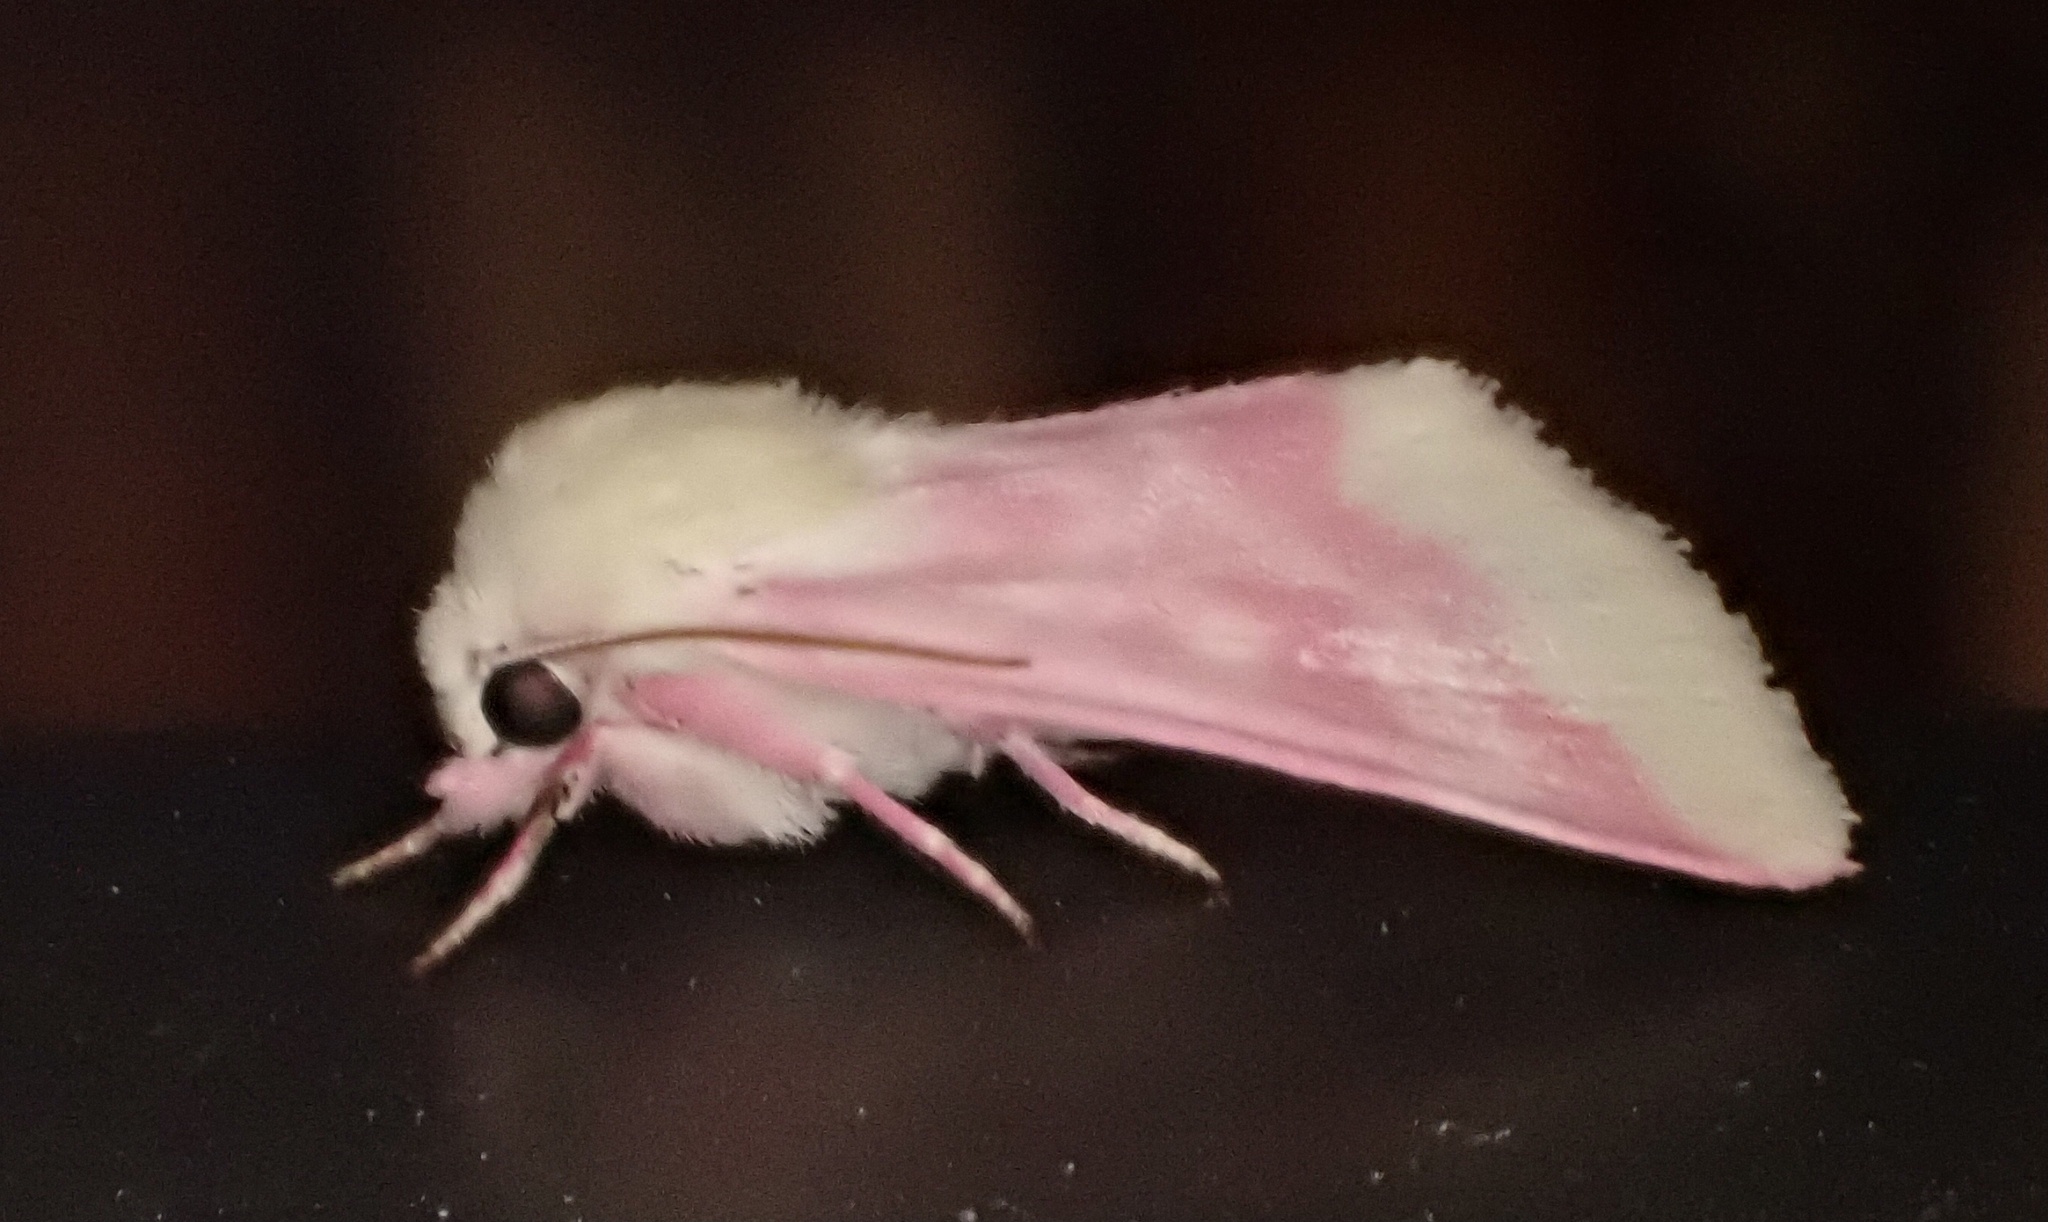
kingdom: Animalia
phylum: Arthropoda
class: Insecta
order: Lepidoptera
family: Noctuidae
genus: Schinia
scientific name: Schinia florida
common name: Primrose moth
